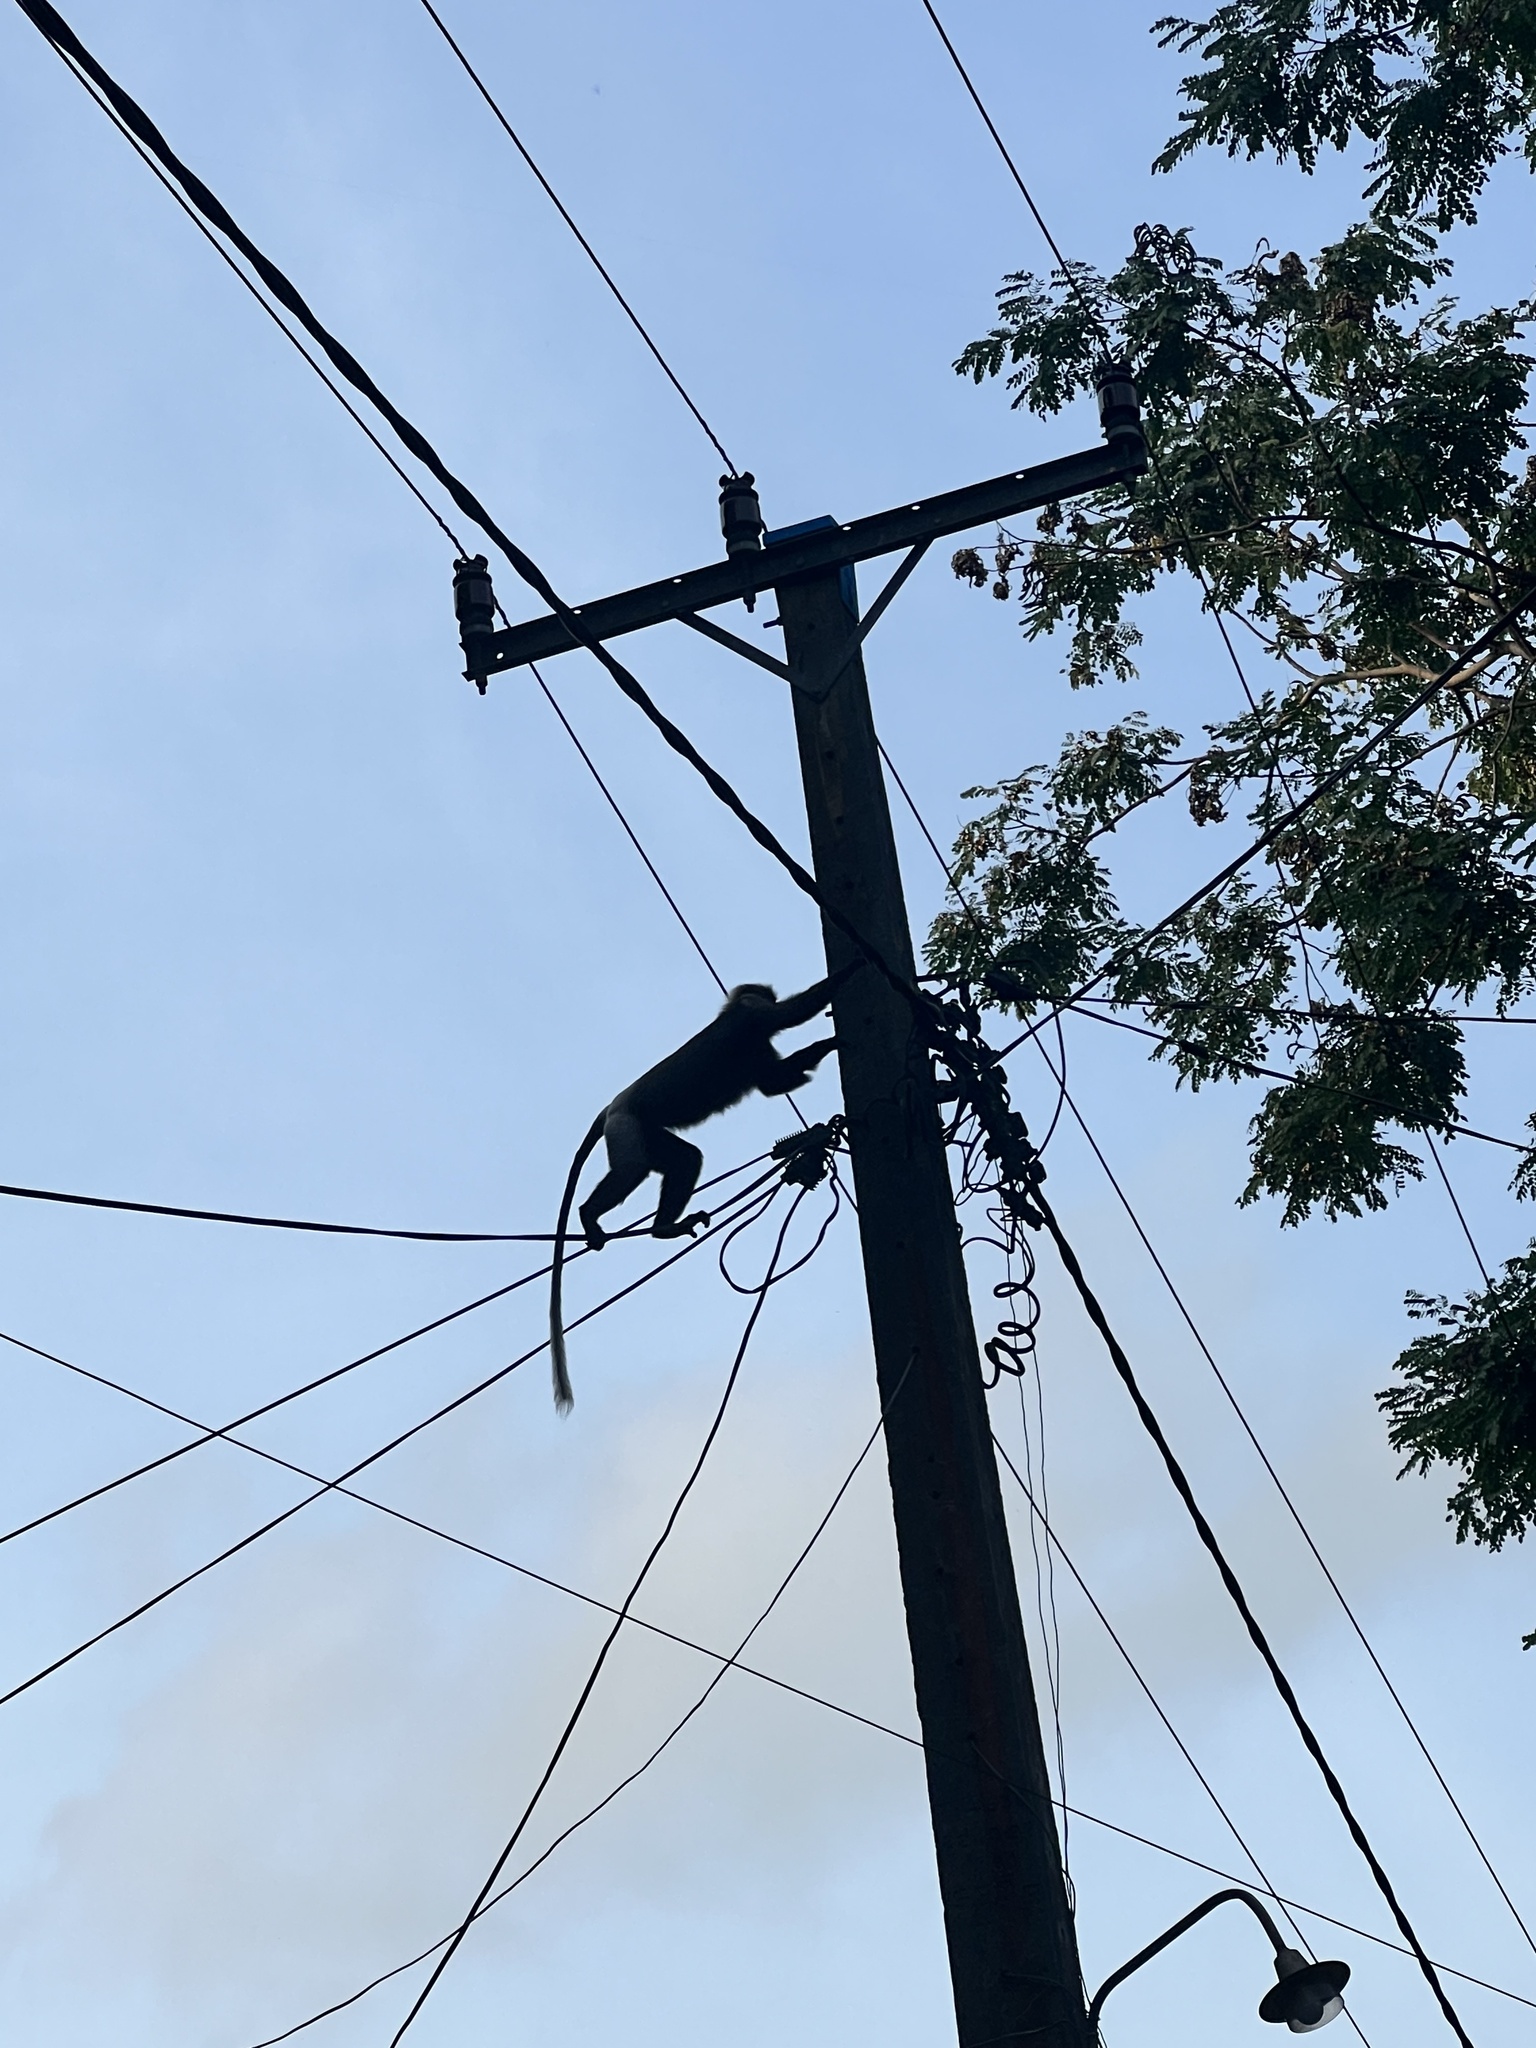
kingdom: Animalia
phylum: Chordata
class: Mammalia
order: Primates
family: Cercopithecidae
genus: Semnopithecus
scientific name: Semnopithecus vetulus
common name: Purple-faced langur
